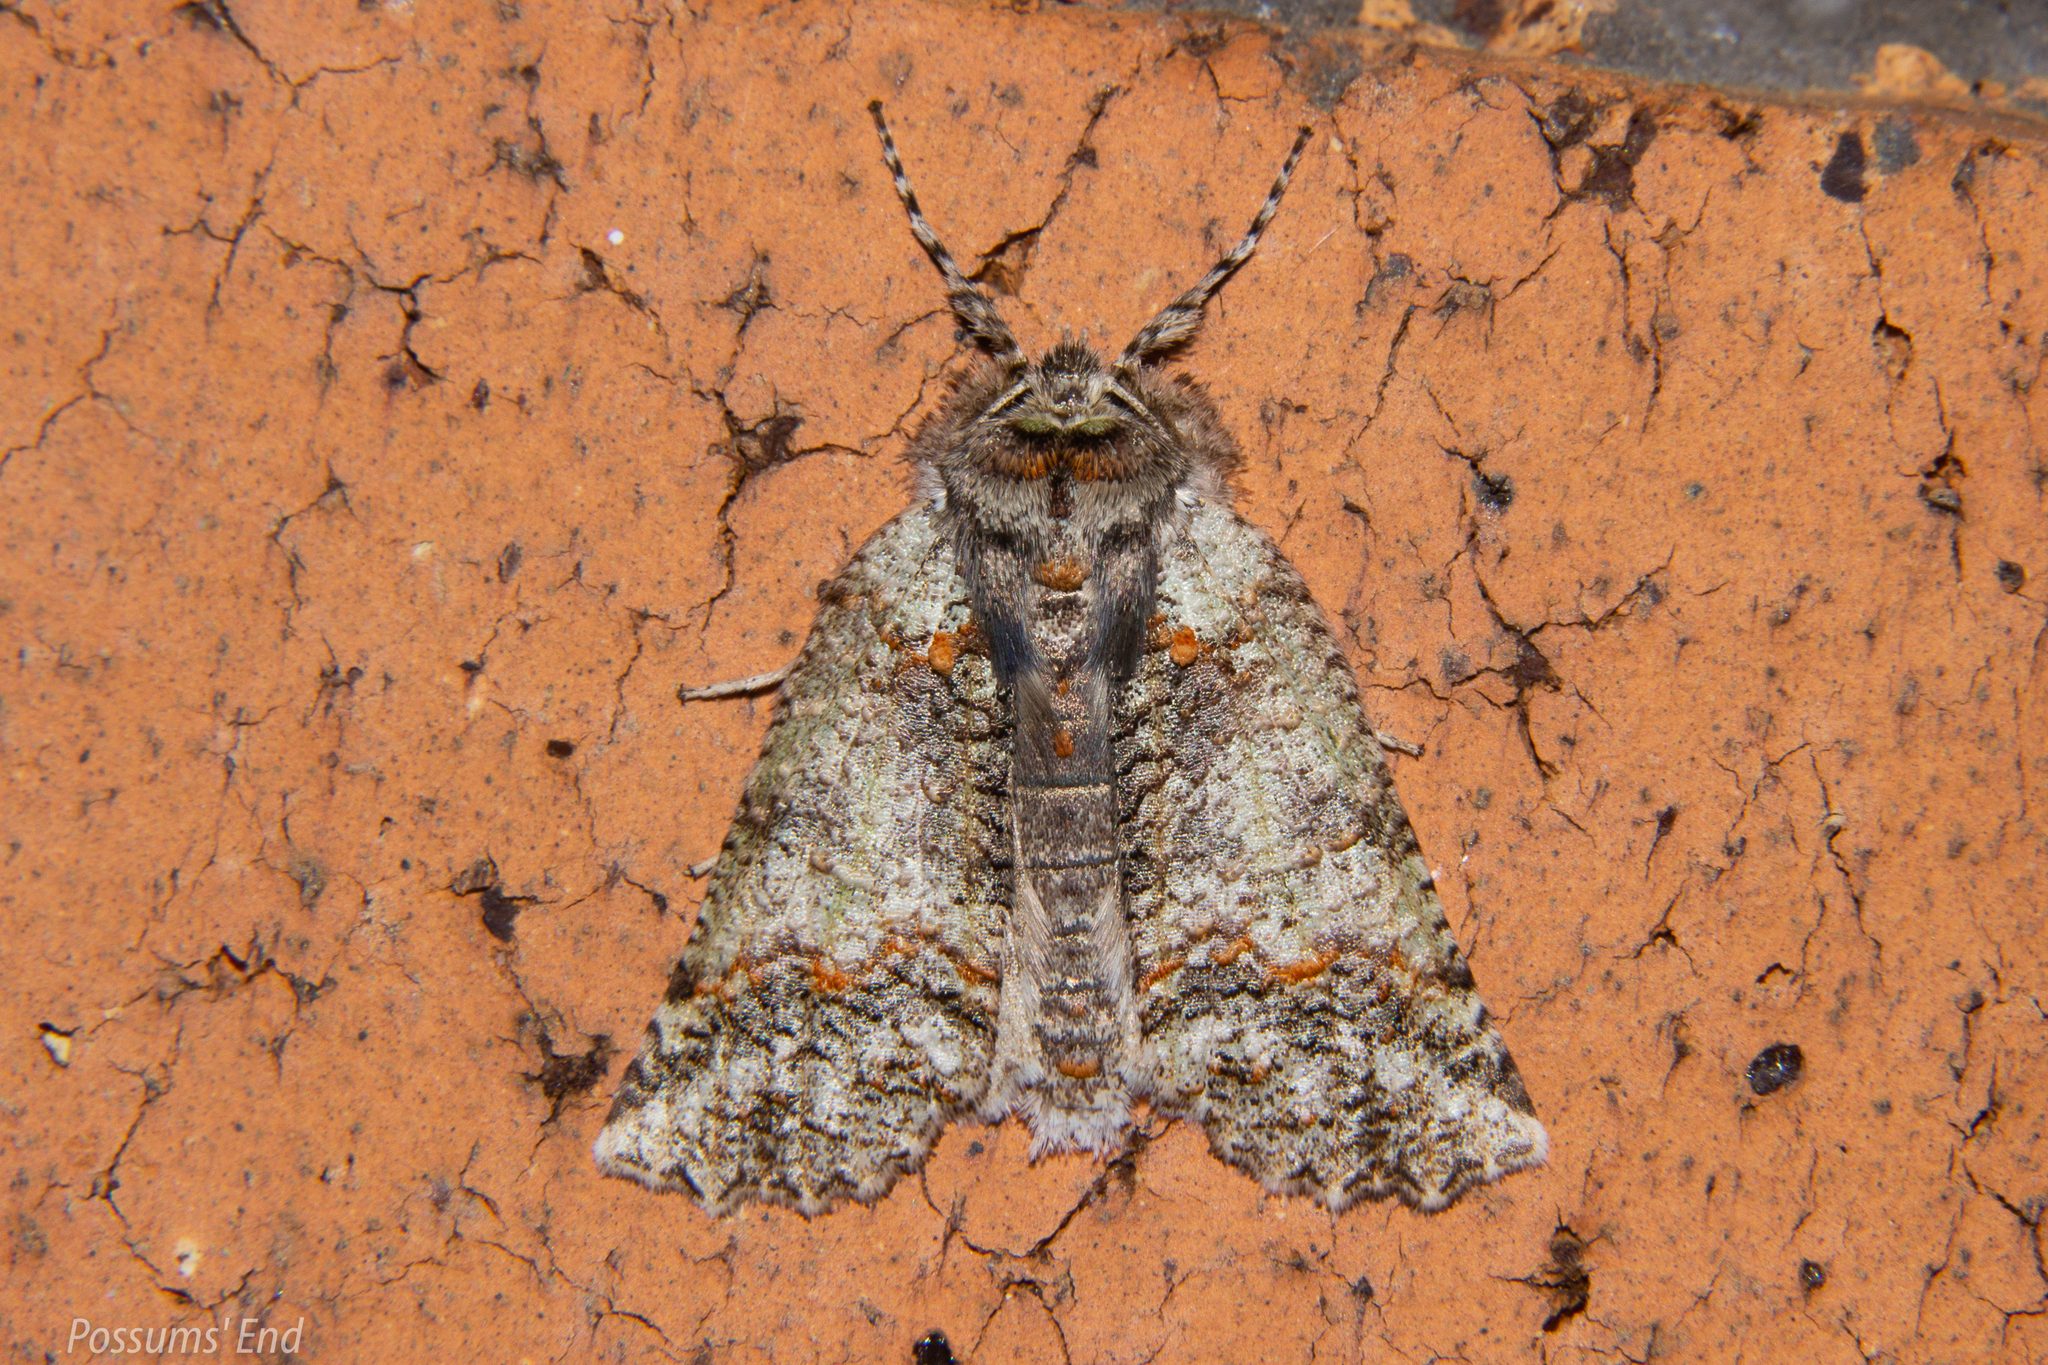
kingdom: Animalia
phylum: Arthropoda
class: Insecta
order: Lepidoptera
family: Geometridae
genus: Declana
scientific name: Declana floccosa
